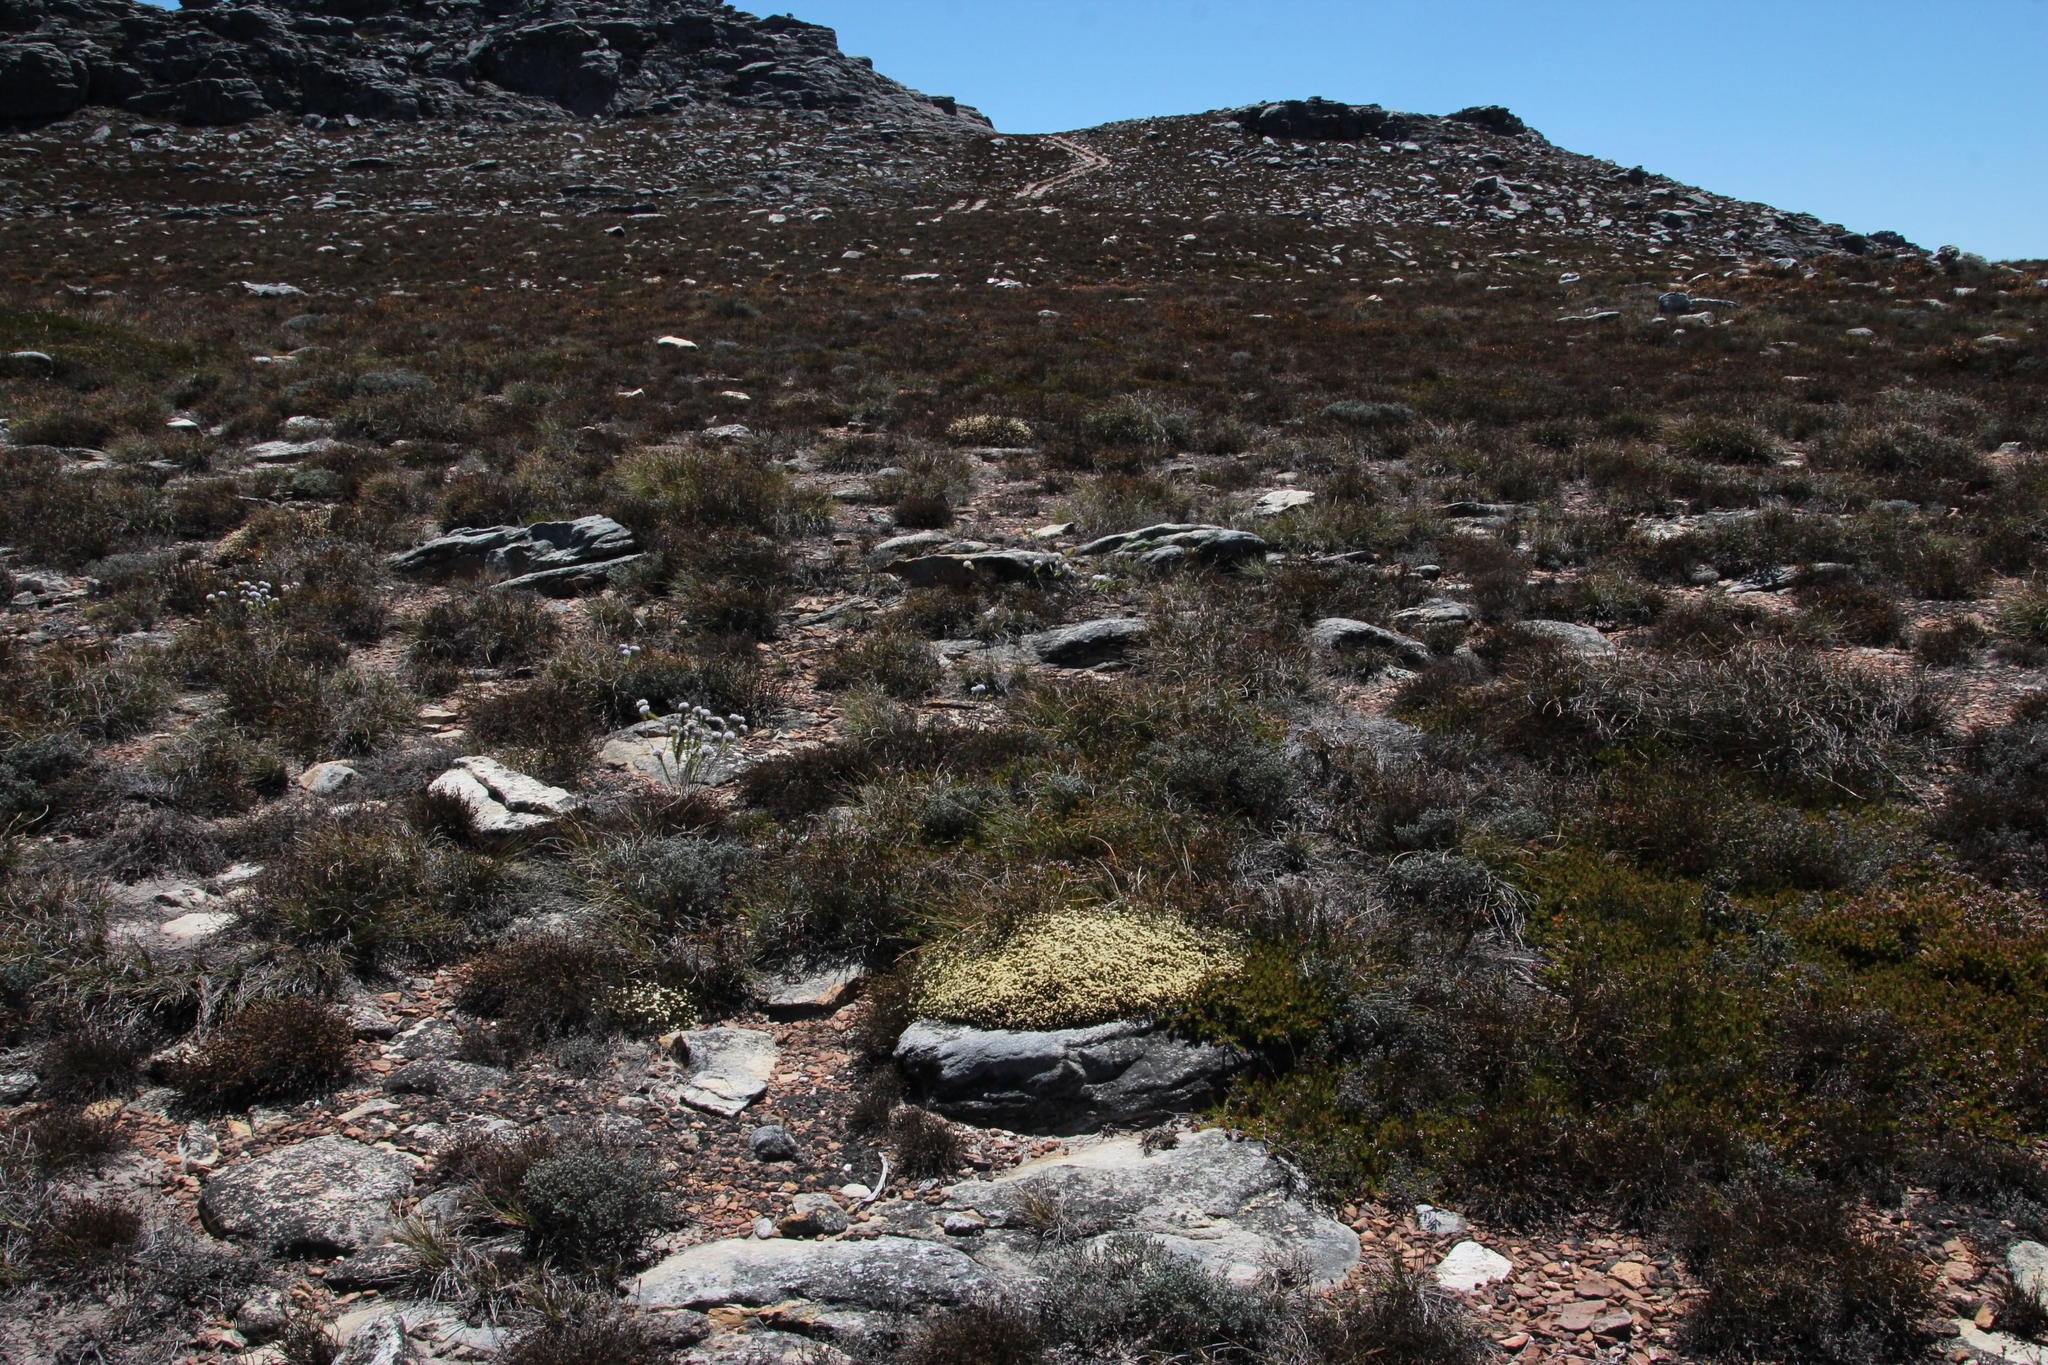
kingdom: Plantae
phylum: Tracheophyta
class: Magnoliopsida
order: Malvales
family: Thymelaeaceae
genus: Lachnaea
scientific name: Lachnaea laniflora
